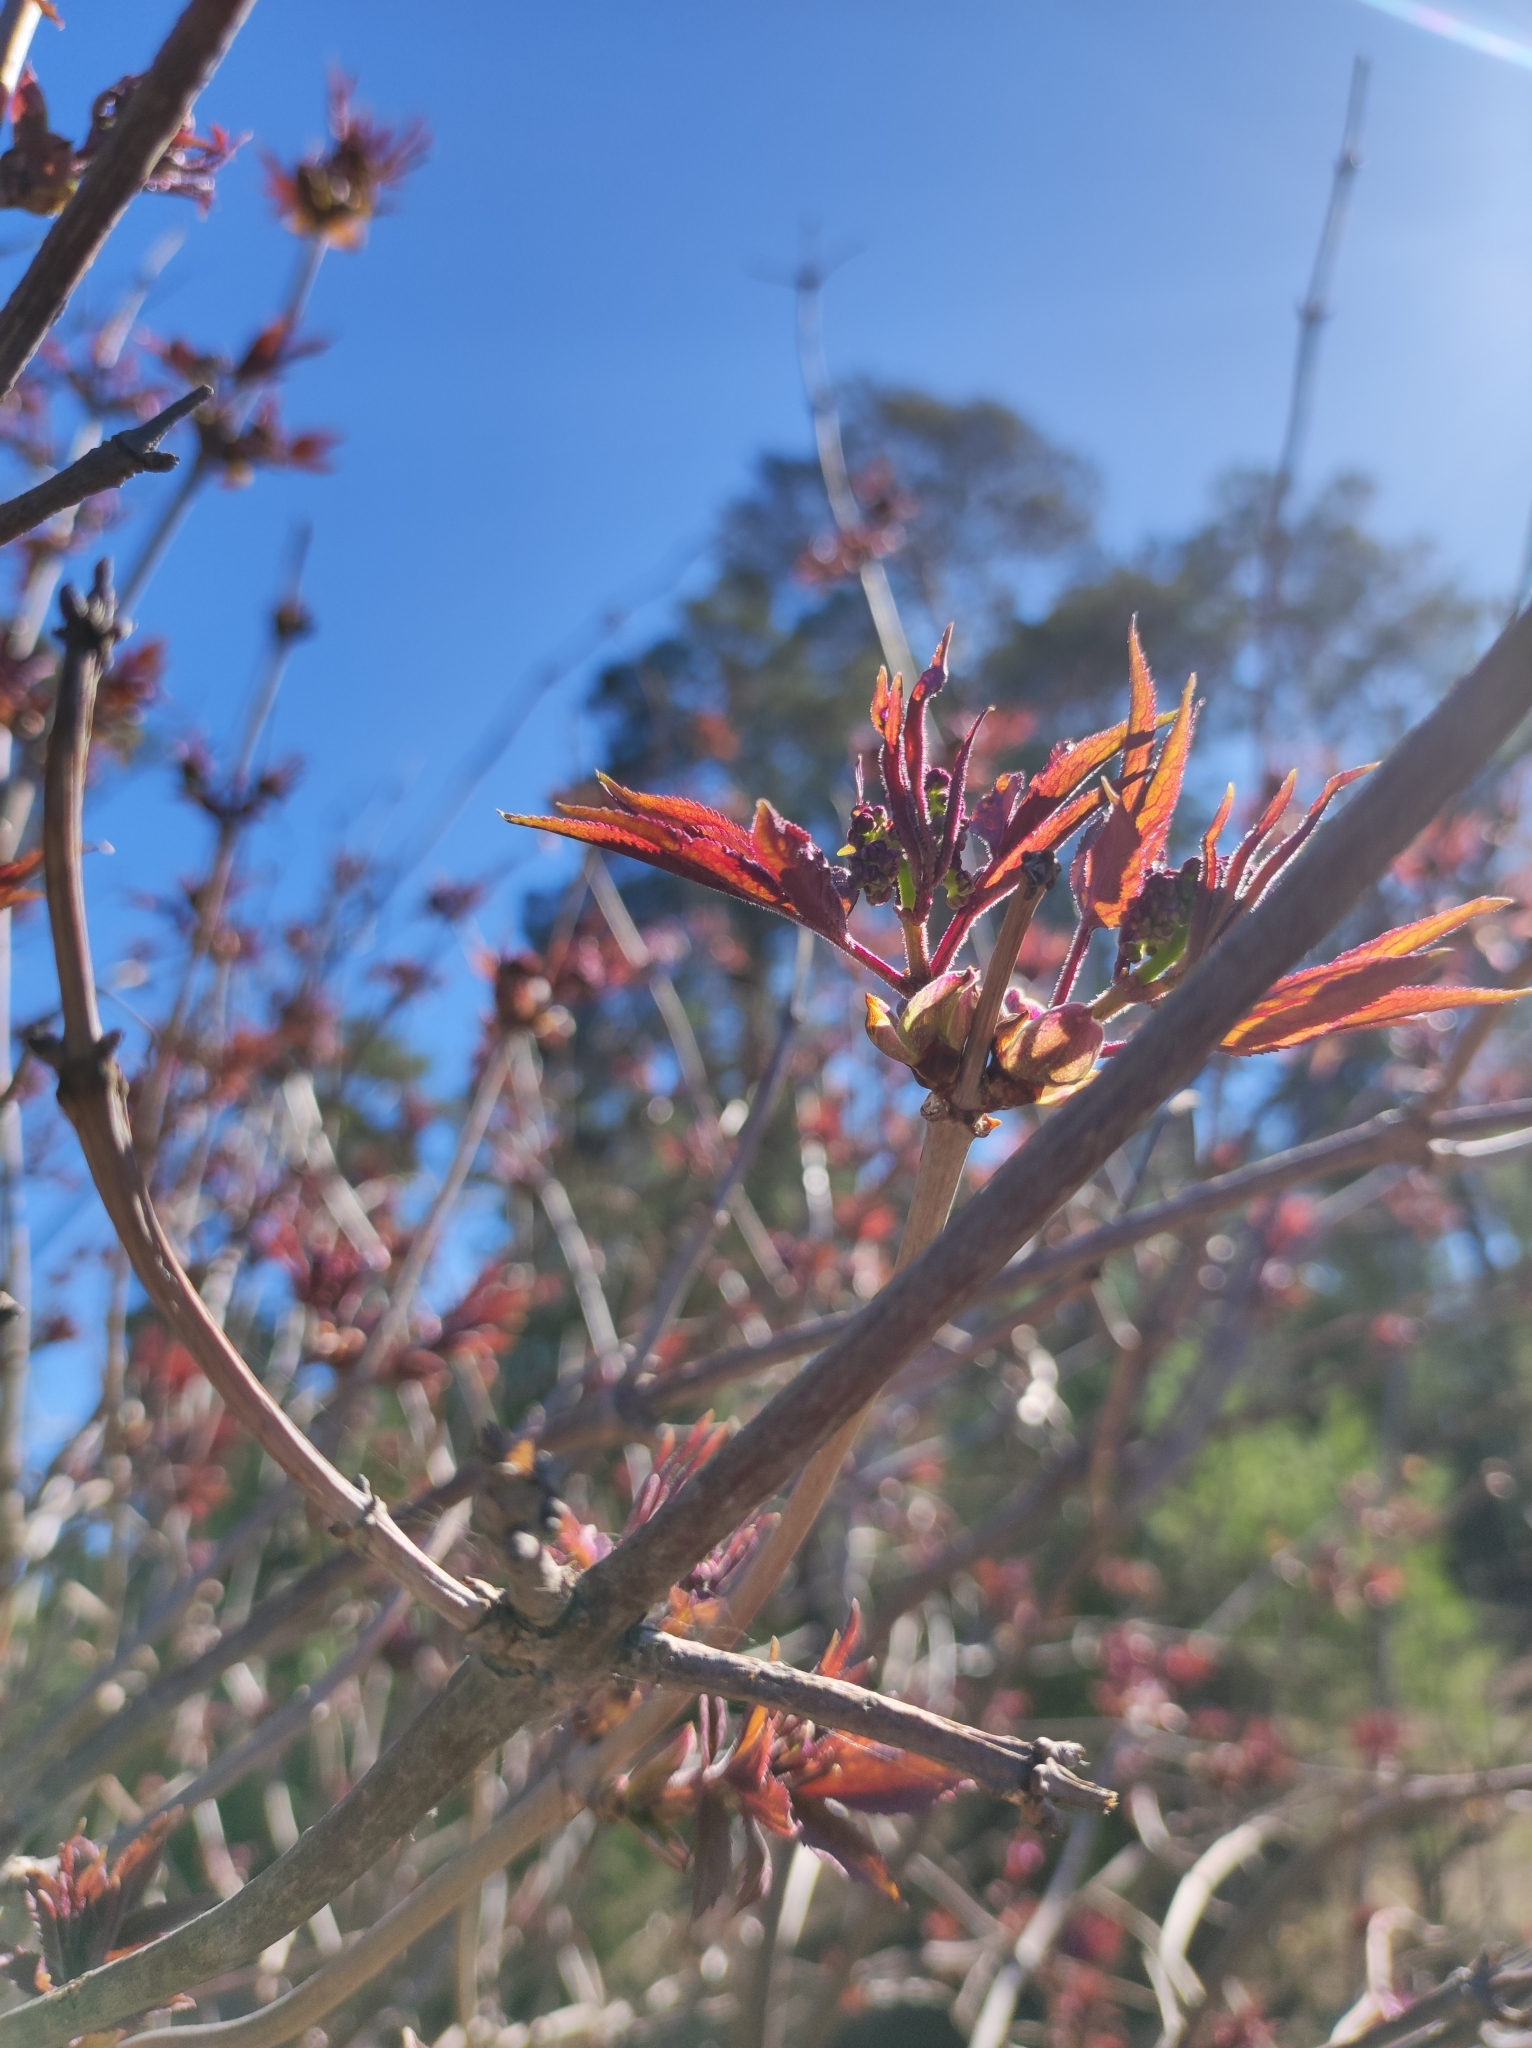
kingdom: Plantae
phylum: Tracheophyta
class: Magnoliopsida
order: Dipsacales
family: Viburnaceae
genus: Sambucus
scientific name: Sambucus racemosa
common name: Red-berried elder
